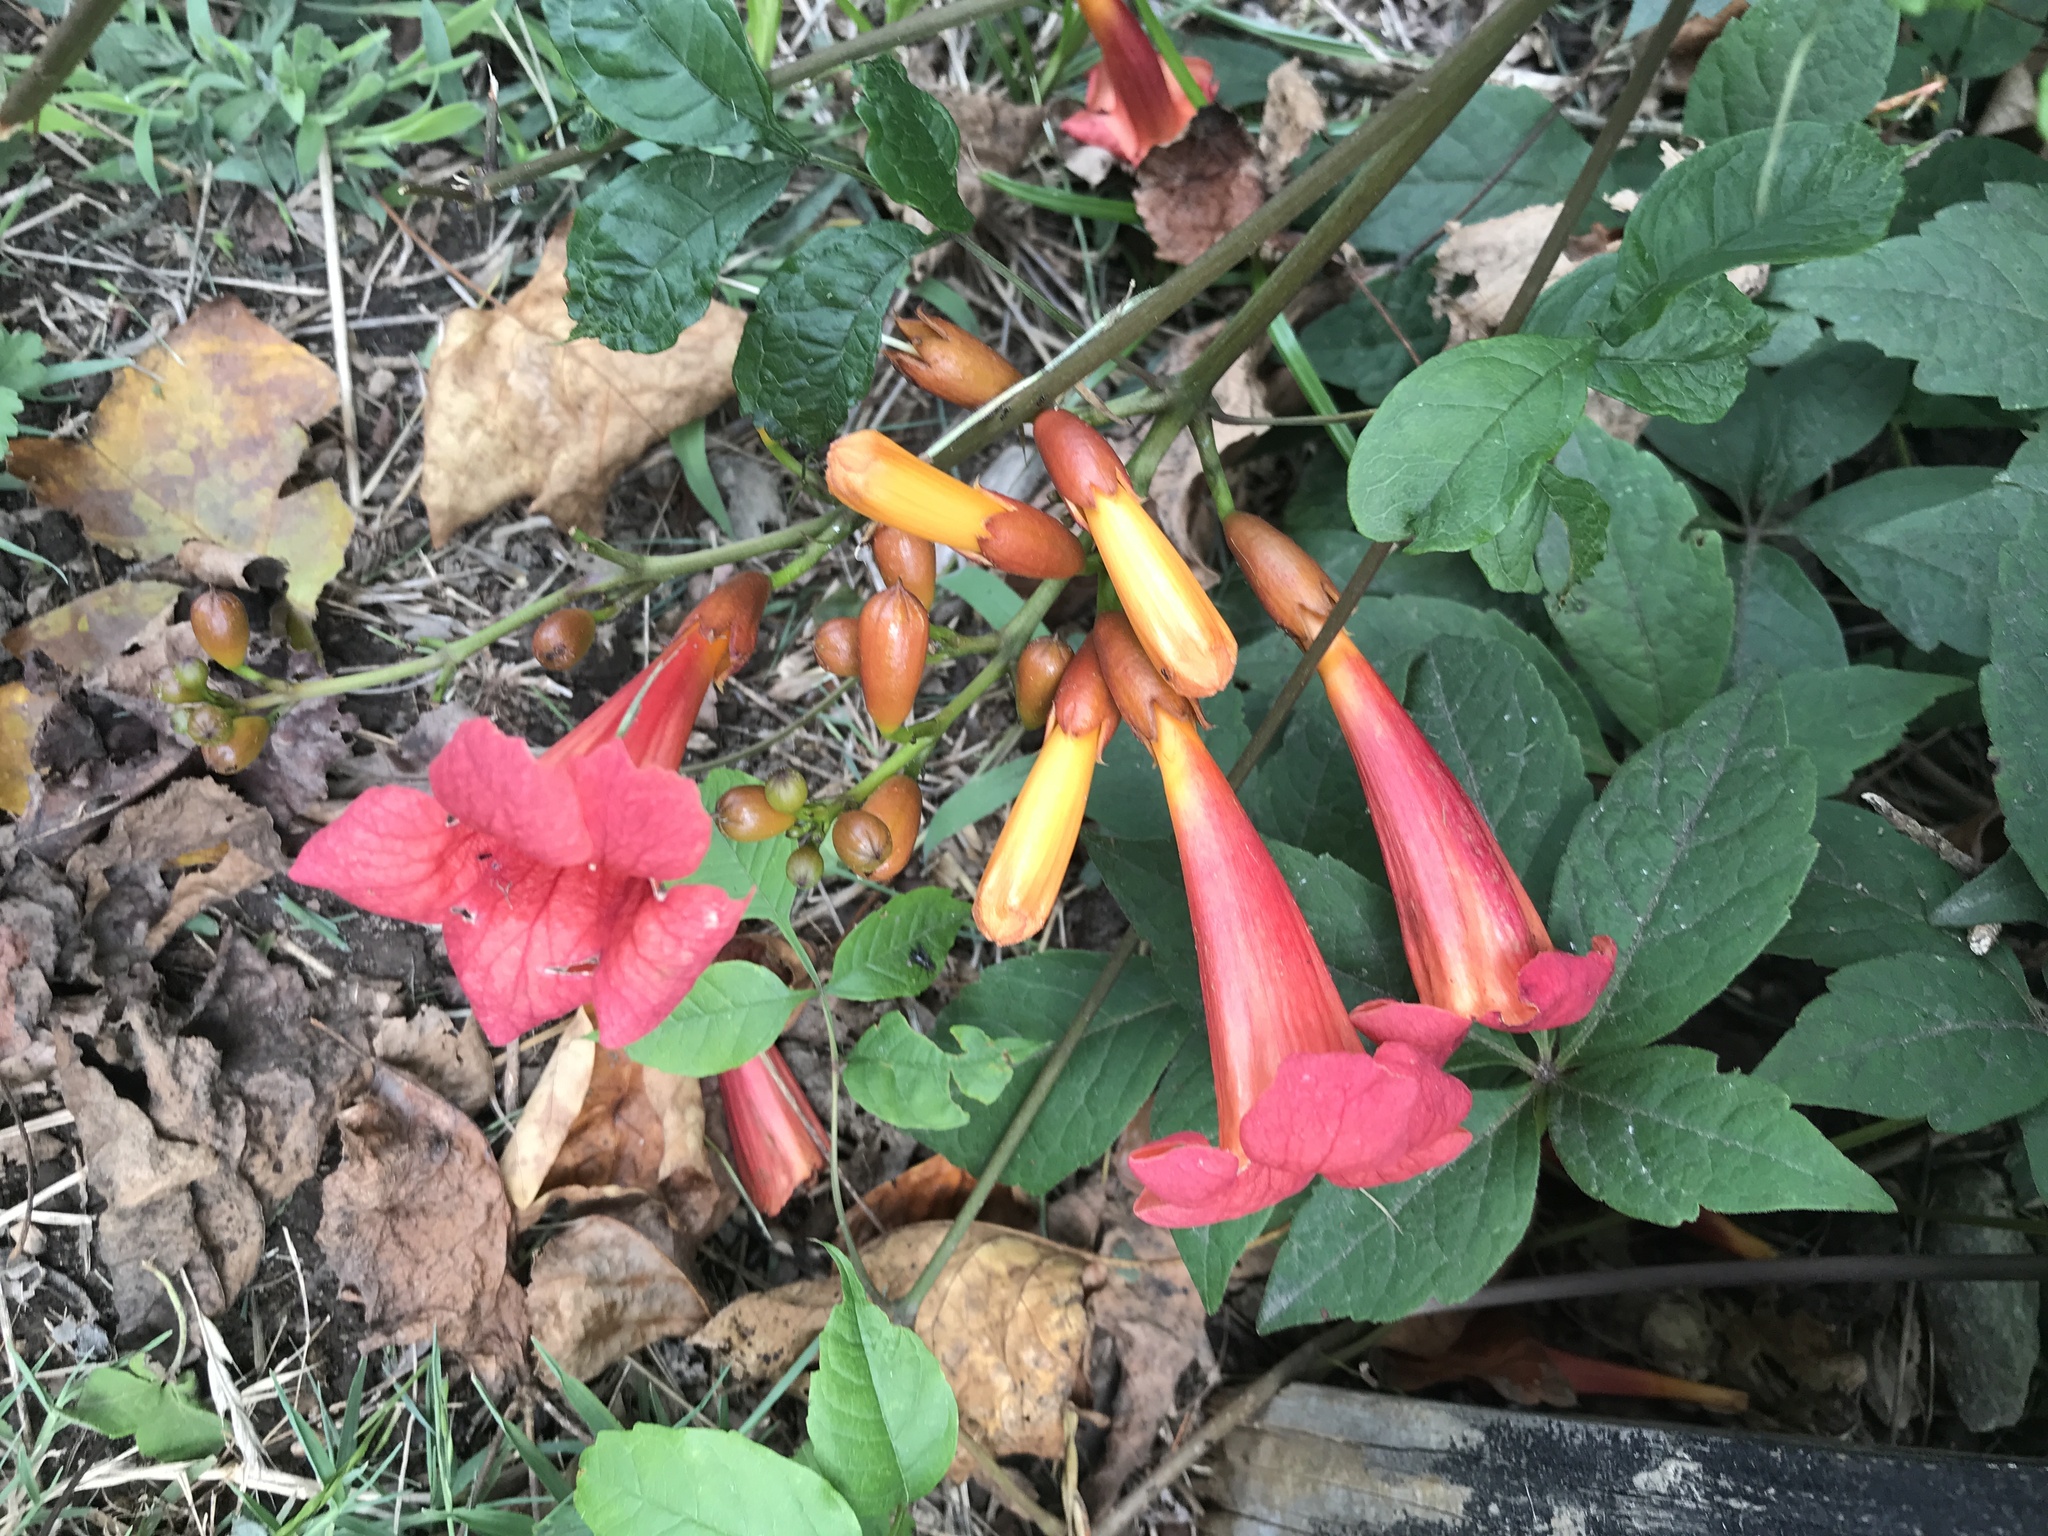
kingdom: Plantae
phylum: Tracheophyta
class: Magnoliopsida
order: Lamiales
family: Bignoniaceae
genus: Campsis
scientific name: Campsis radicans
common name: Trumpet-creeper
